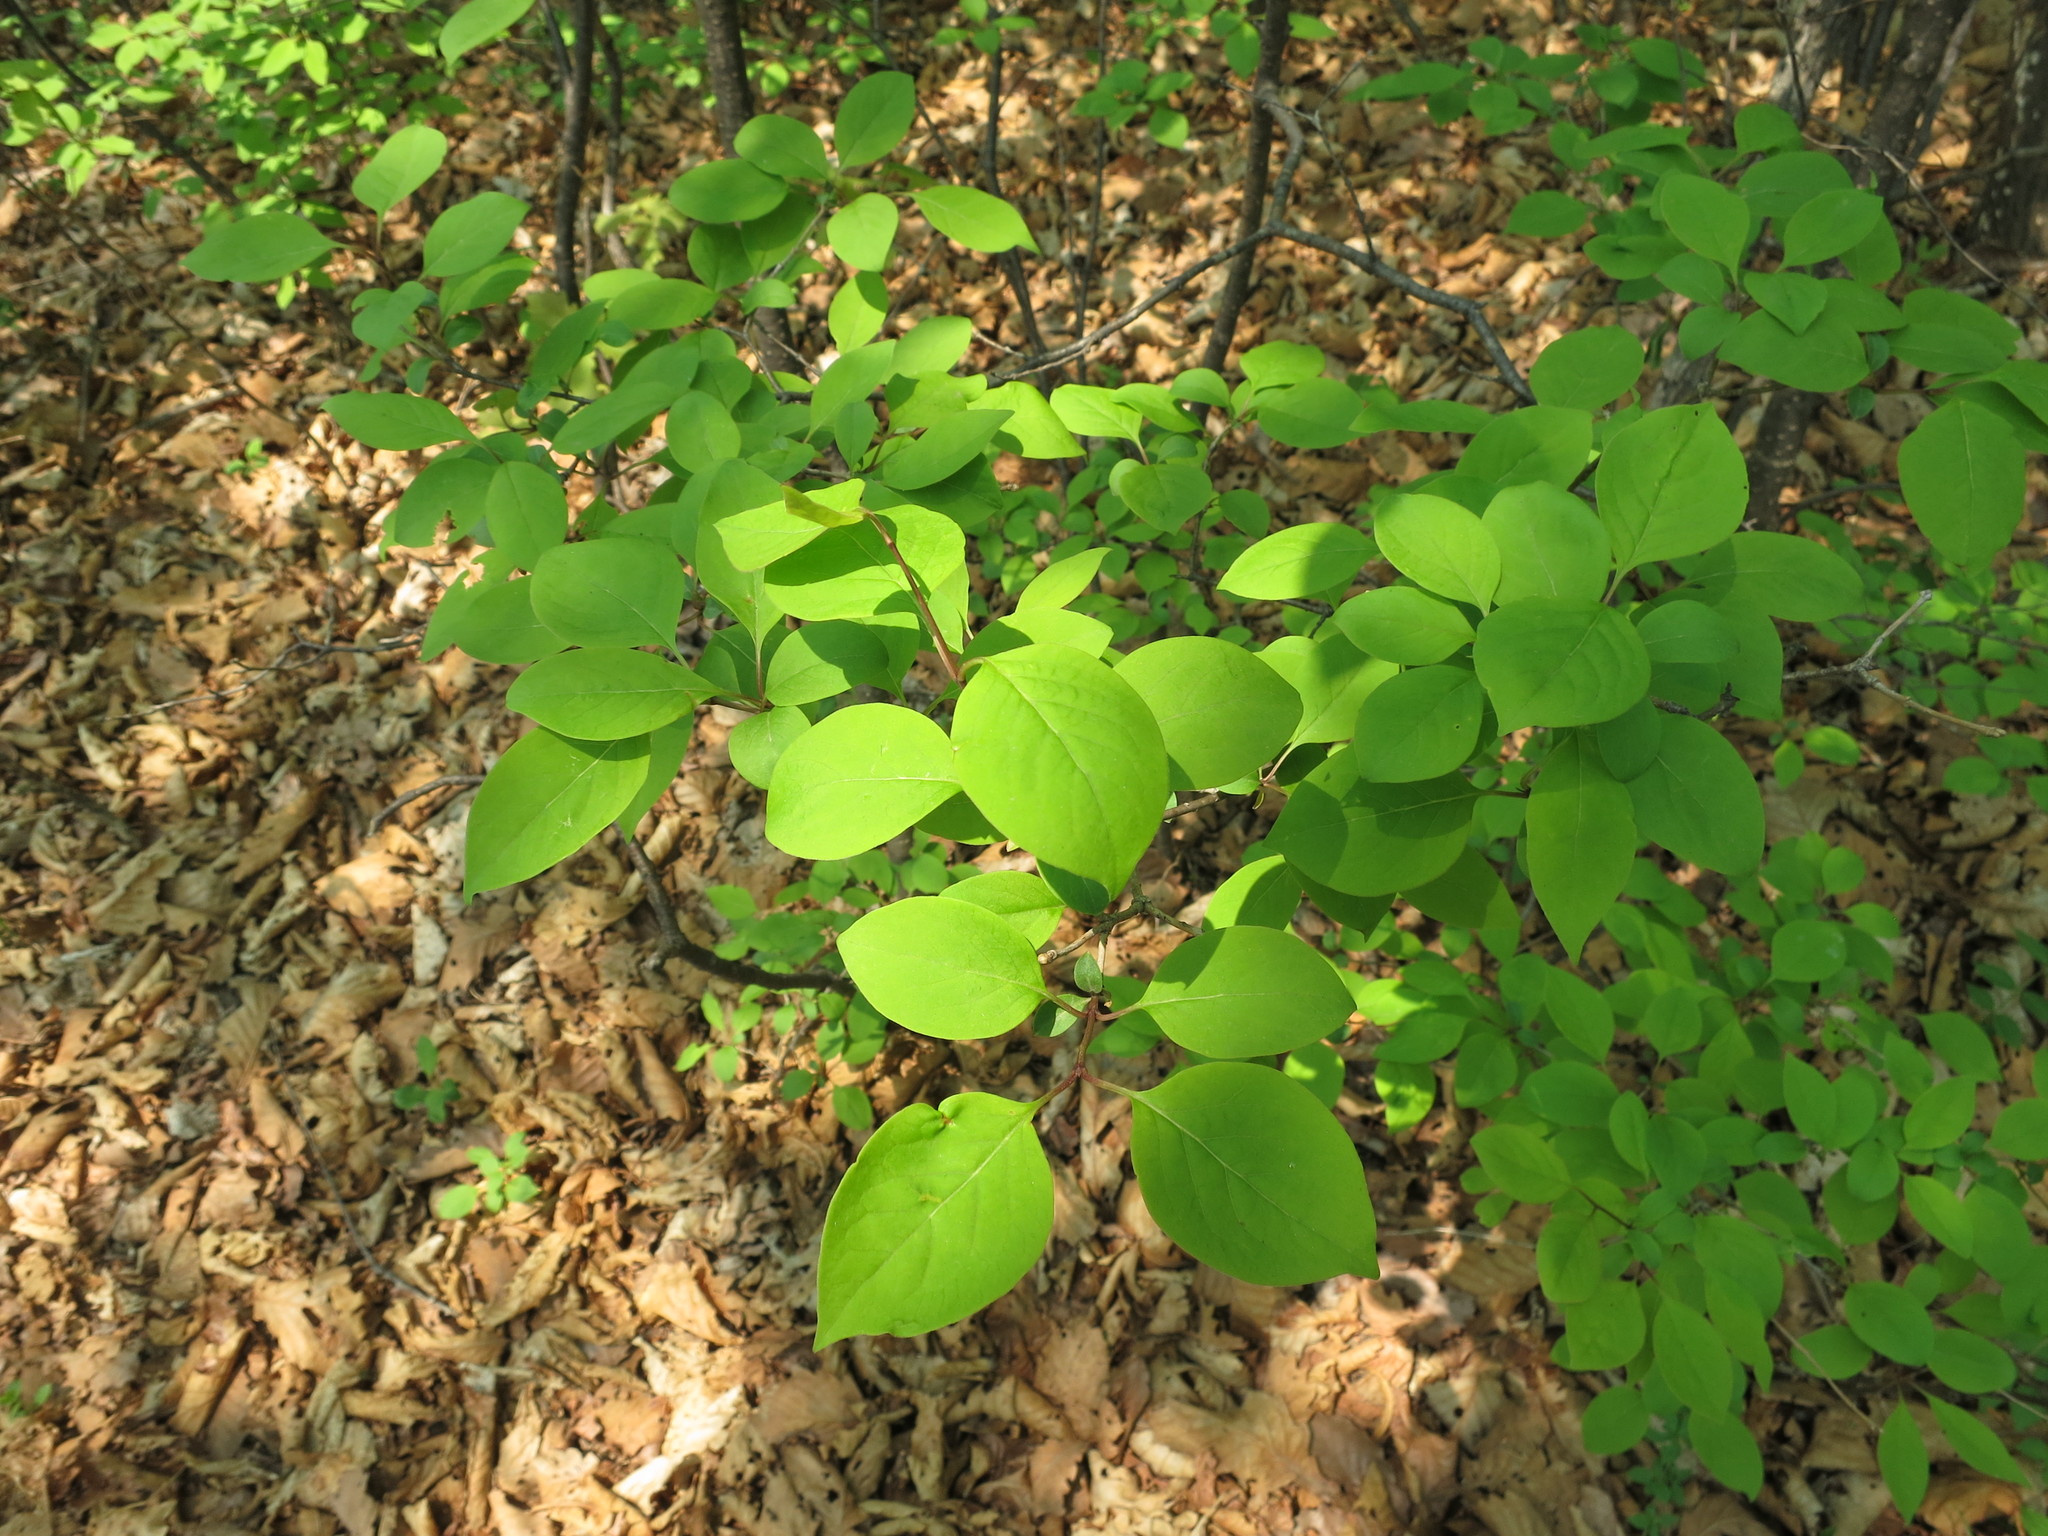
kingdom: Plantae
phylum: Tracheophyta
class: Magnoliopsida
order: Lamiales
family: Oleaceae
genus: Syringa
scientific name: Syringa reticulata
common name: Japanese tree lilac
